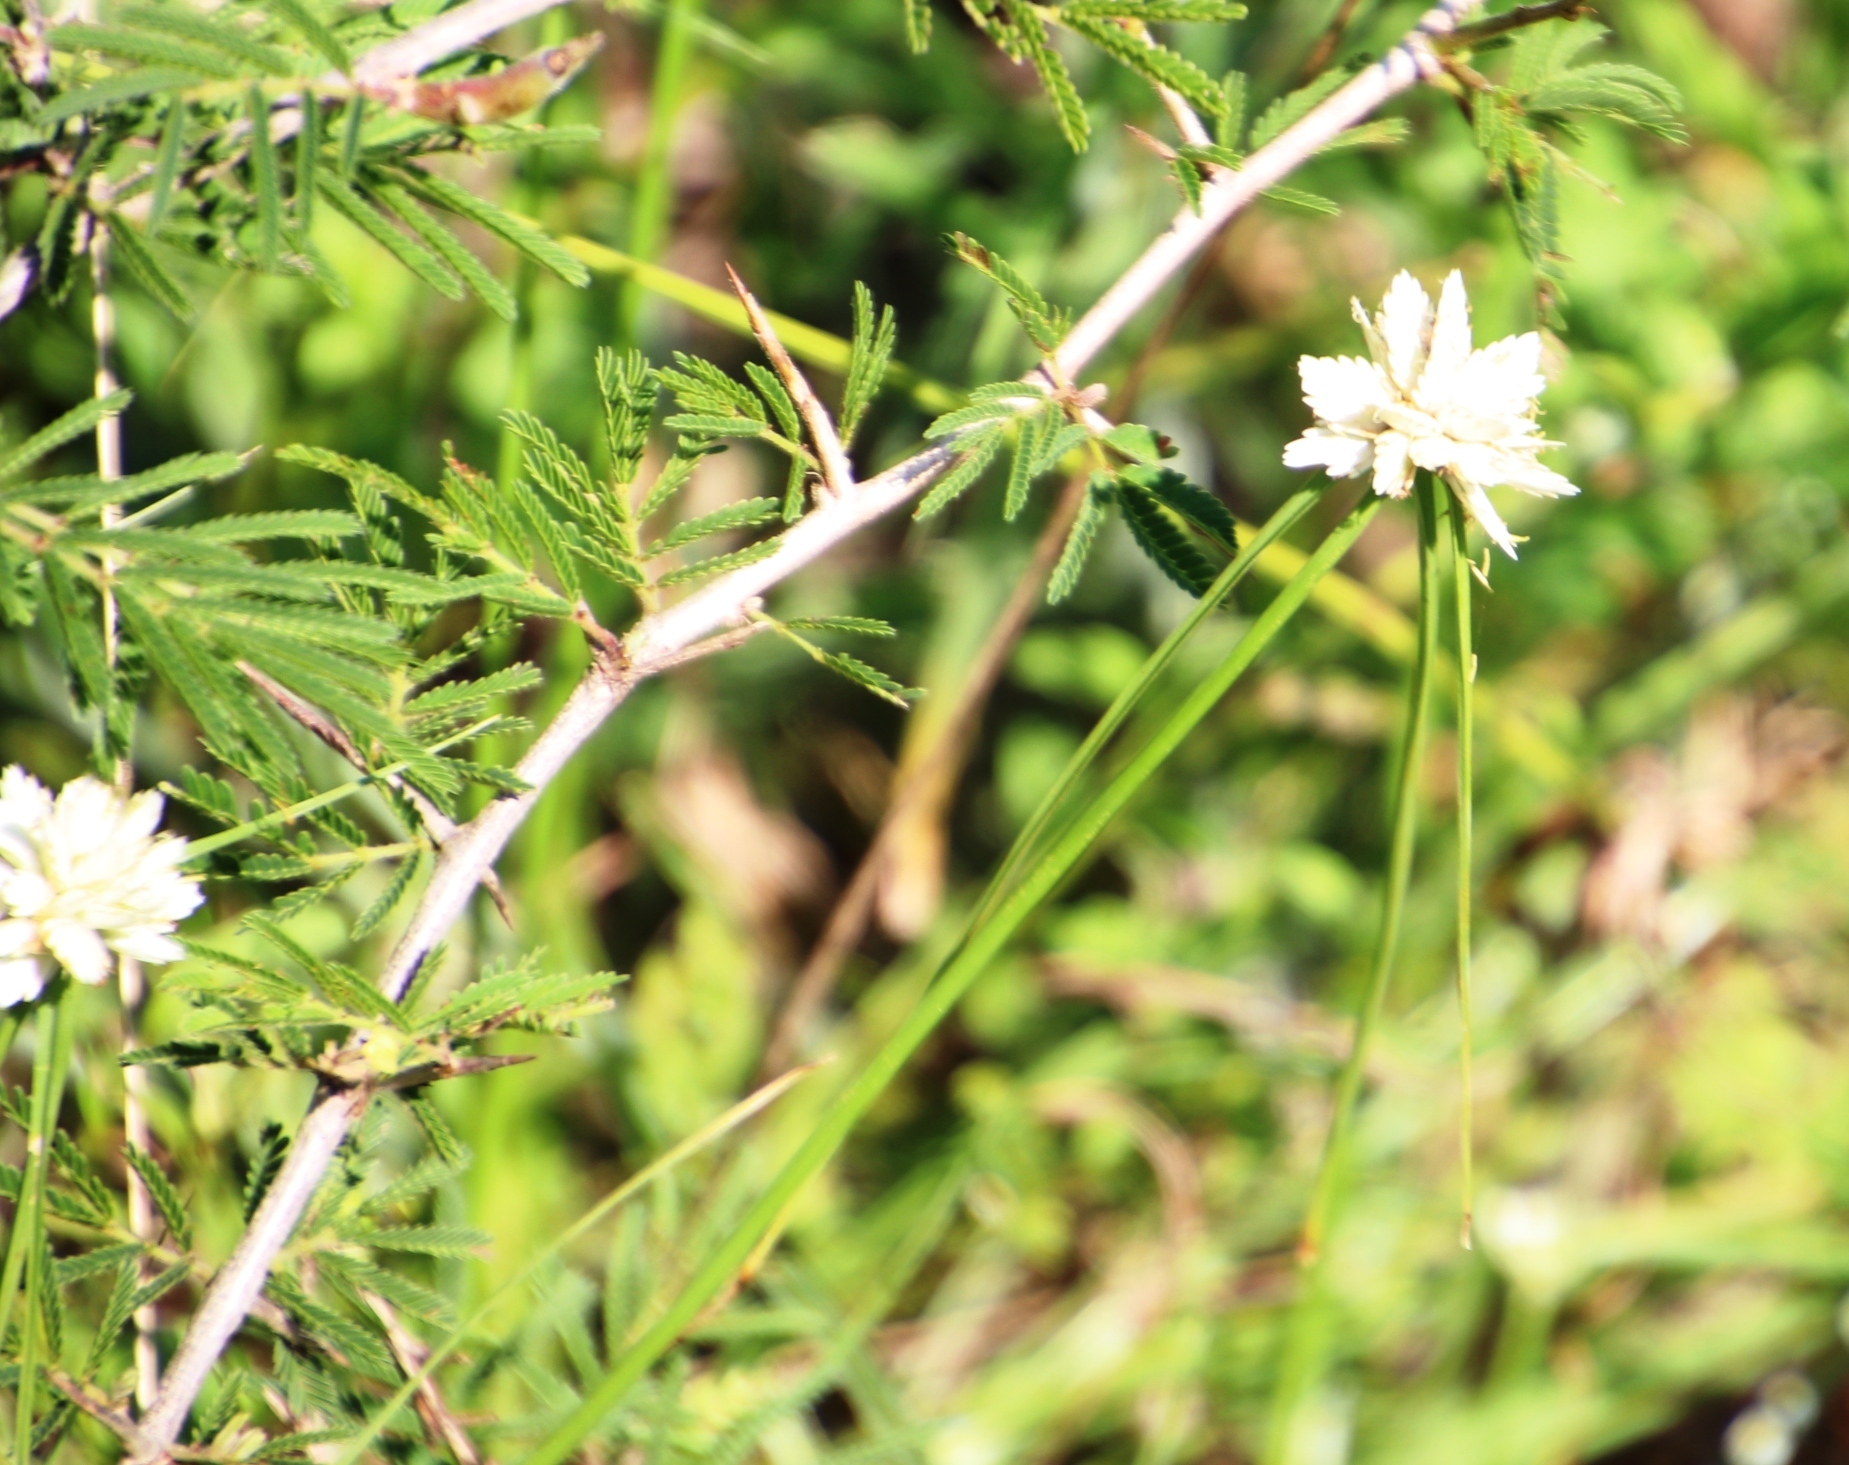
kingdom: Plantae
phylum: Tracheophyta
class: Liliopsida
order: Poales
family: Cyperaceae
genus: Cyperus
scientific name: Cyperus niveus
